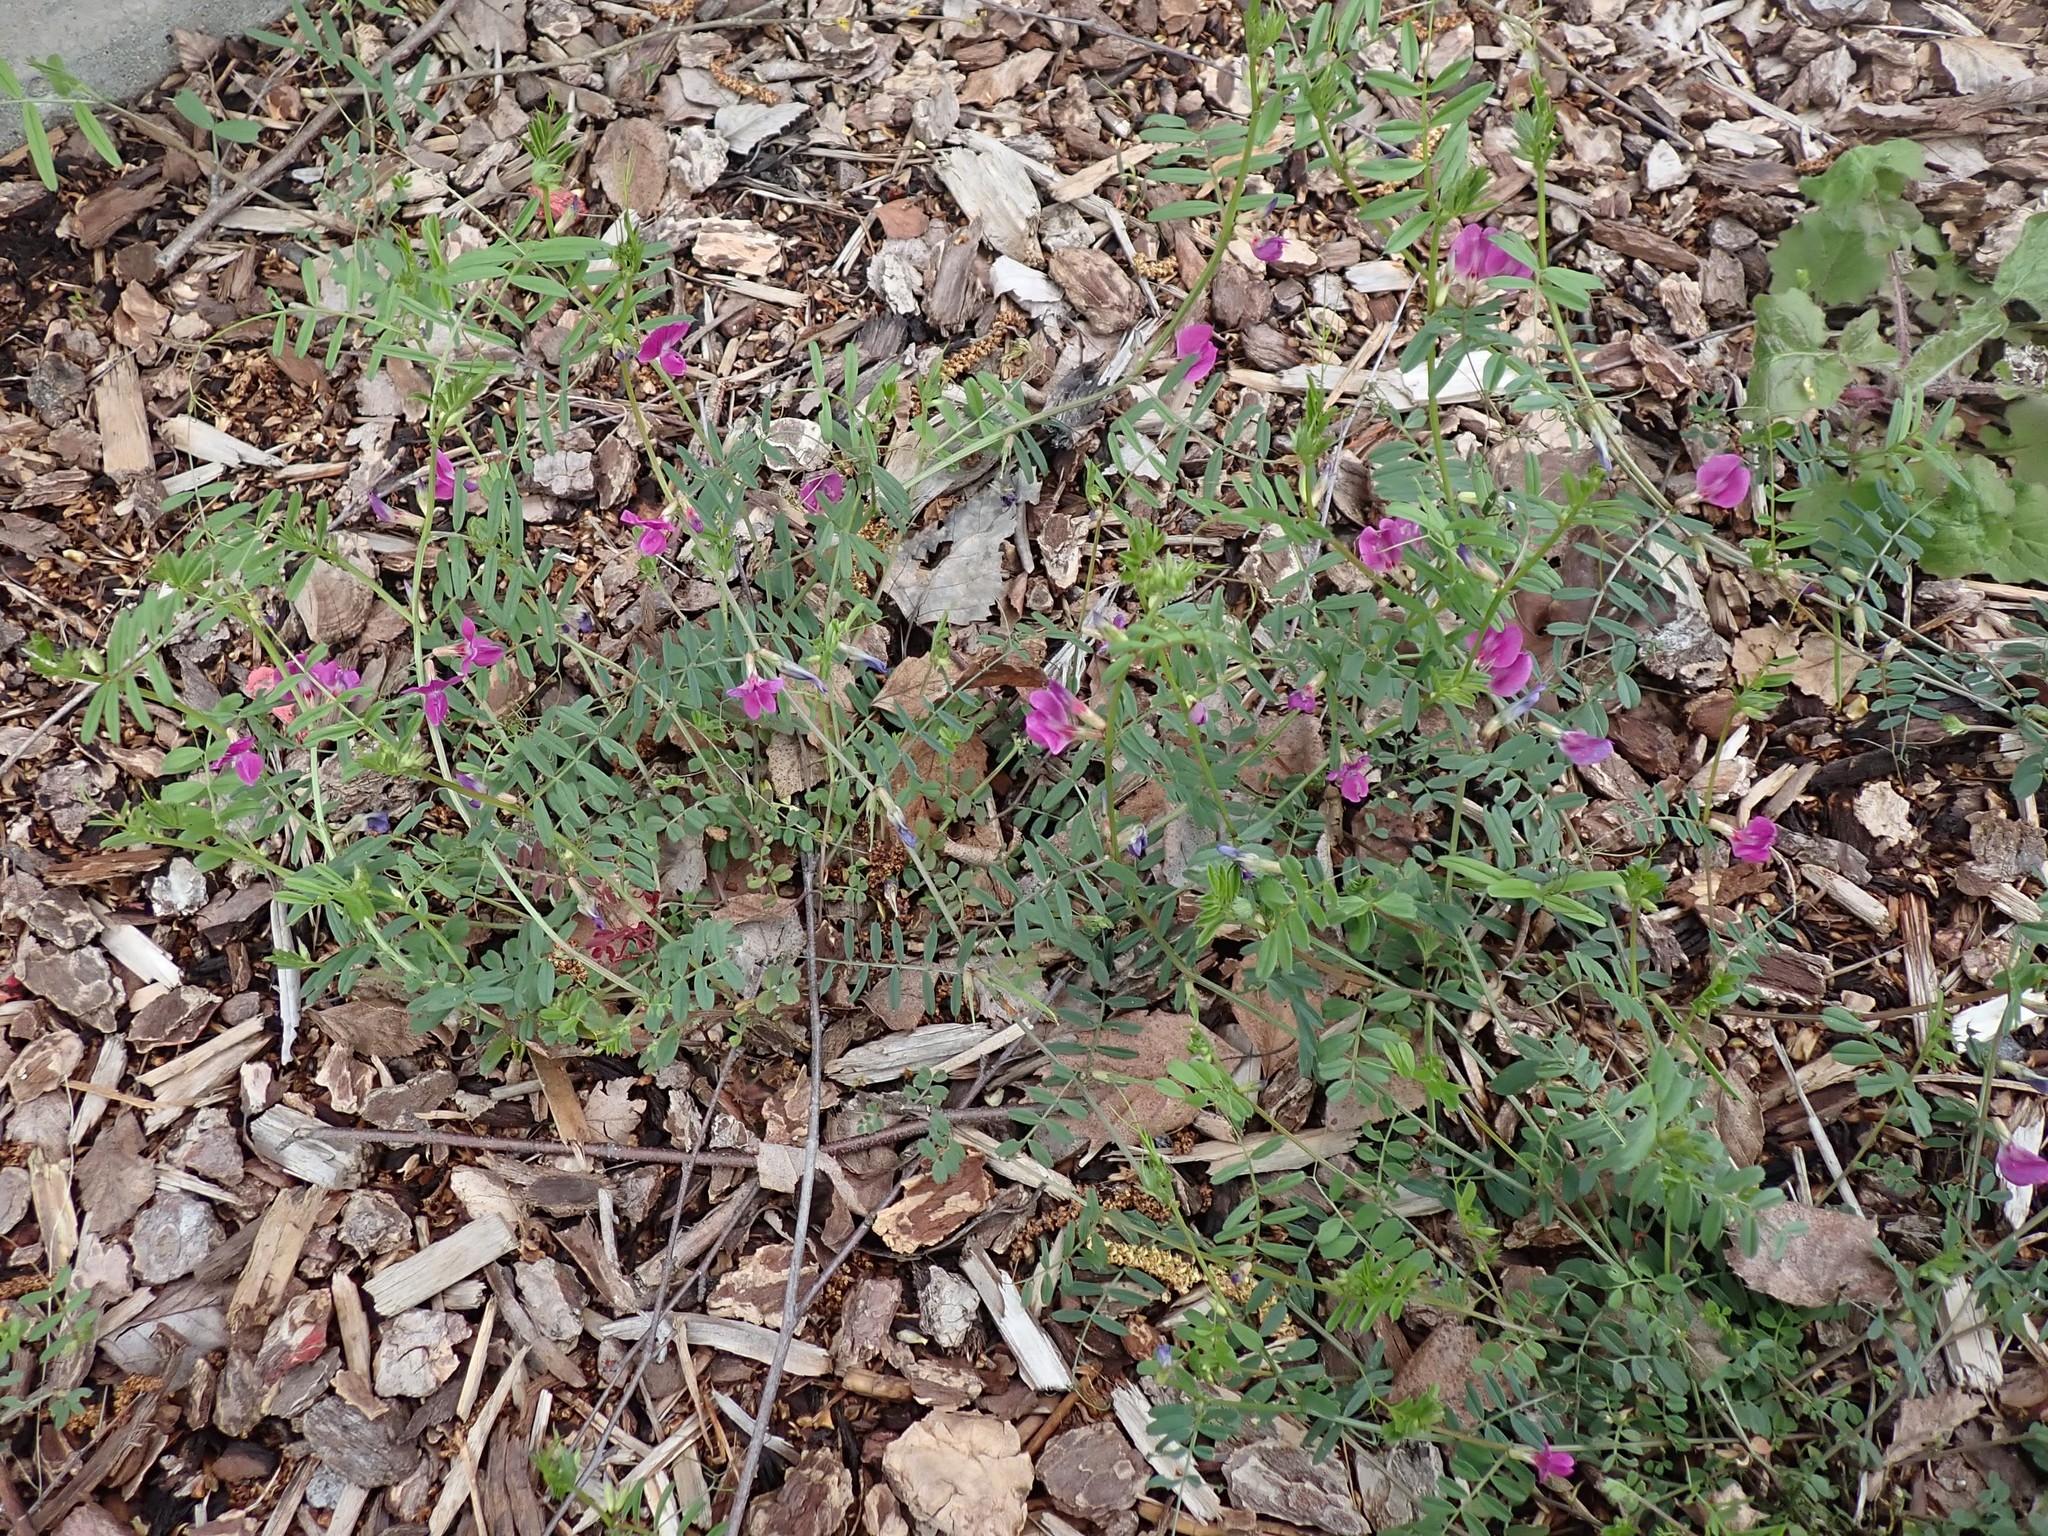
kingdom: Plantae
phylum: Tracheophyta
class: Magnoliopsida
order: Fabales
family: Fabaceae
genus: Vicia
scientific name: Vicia sativa
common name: Garden vetch
